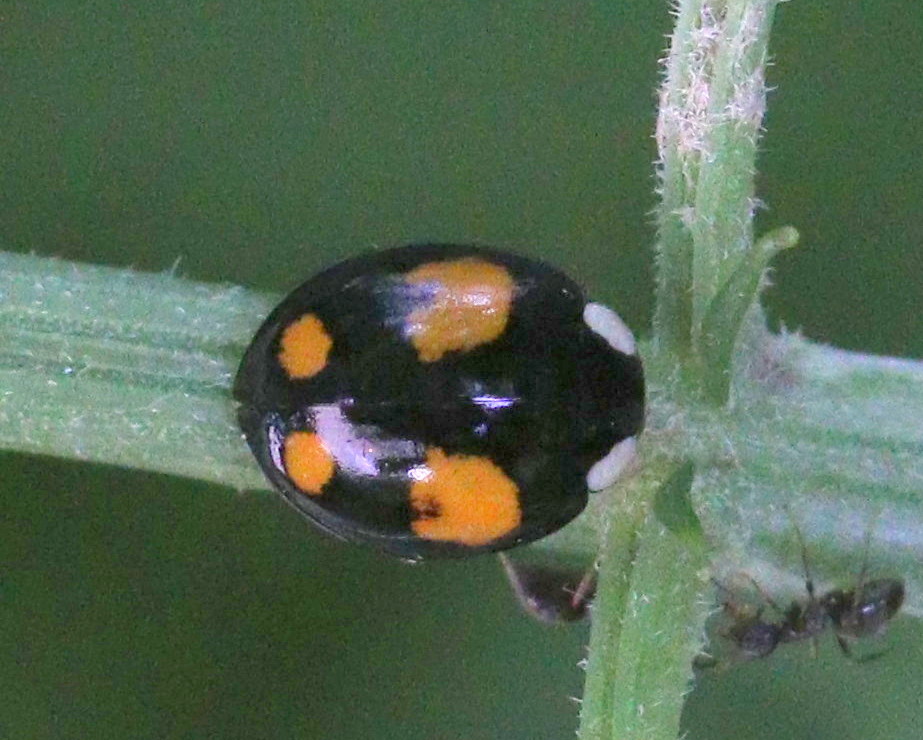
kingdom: Animalia
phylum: Arthropoda
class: Insecta
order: Coleoptera
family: Coccinellidae
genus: Harmonia
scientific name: Harmonia axyridis
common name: Harlequin ladybird
